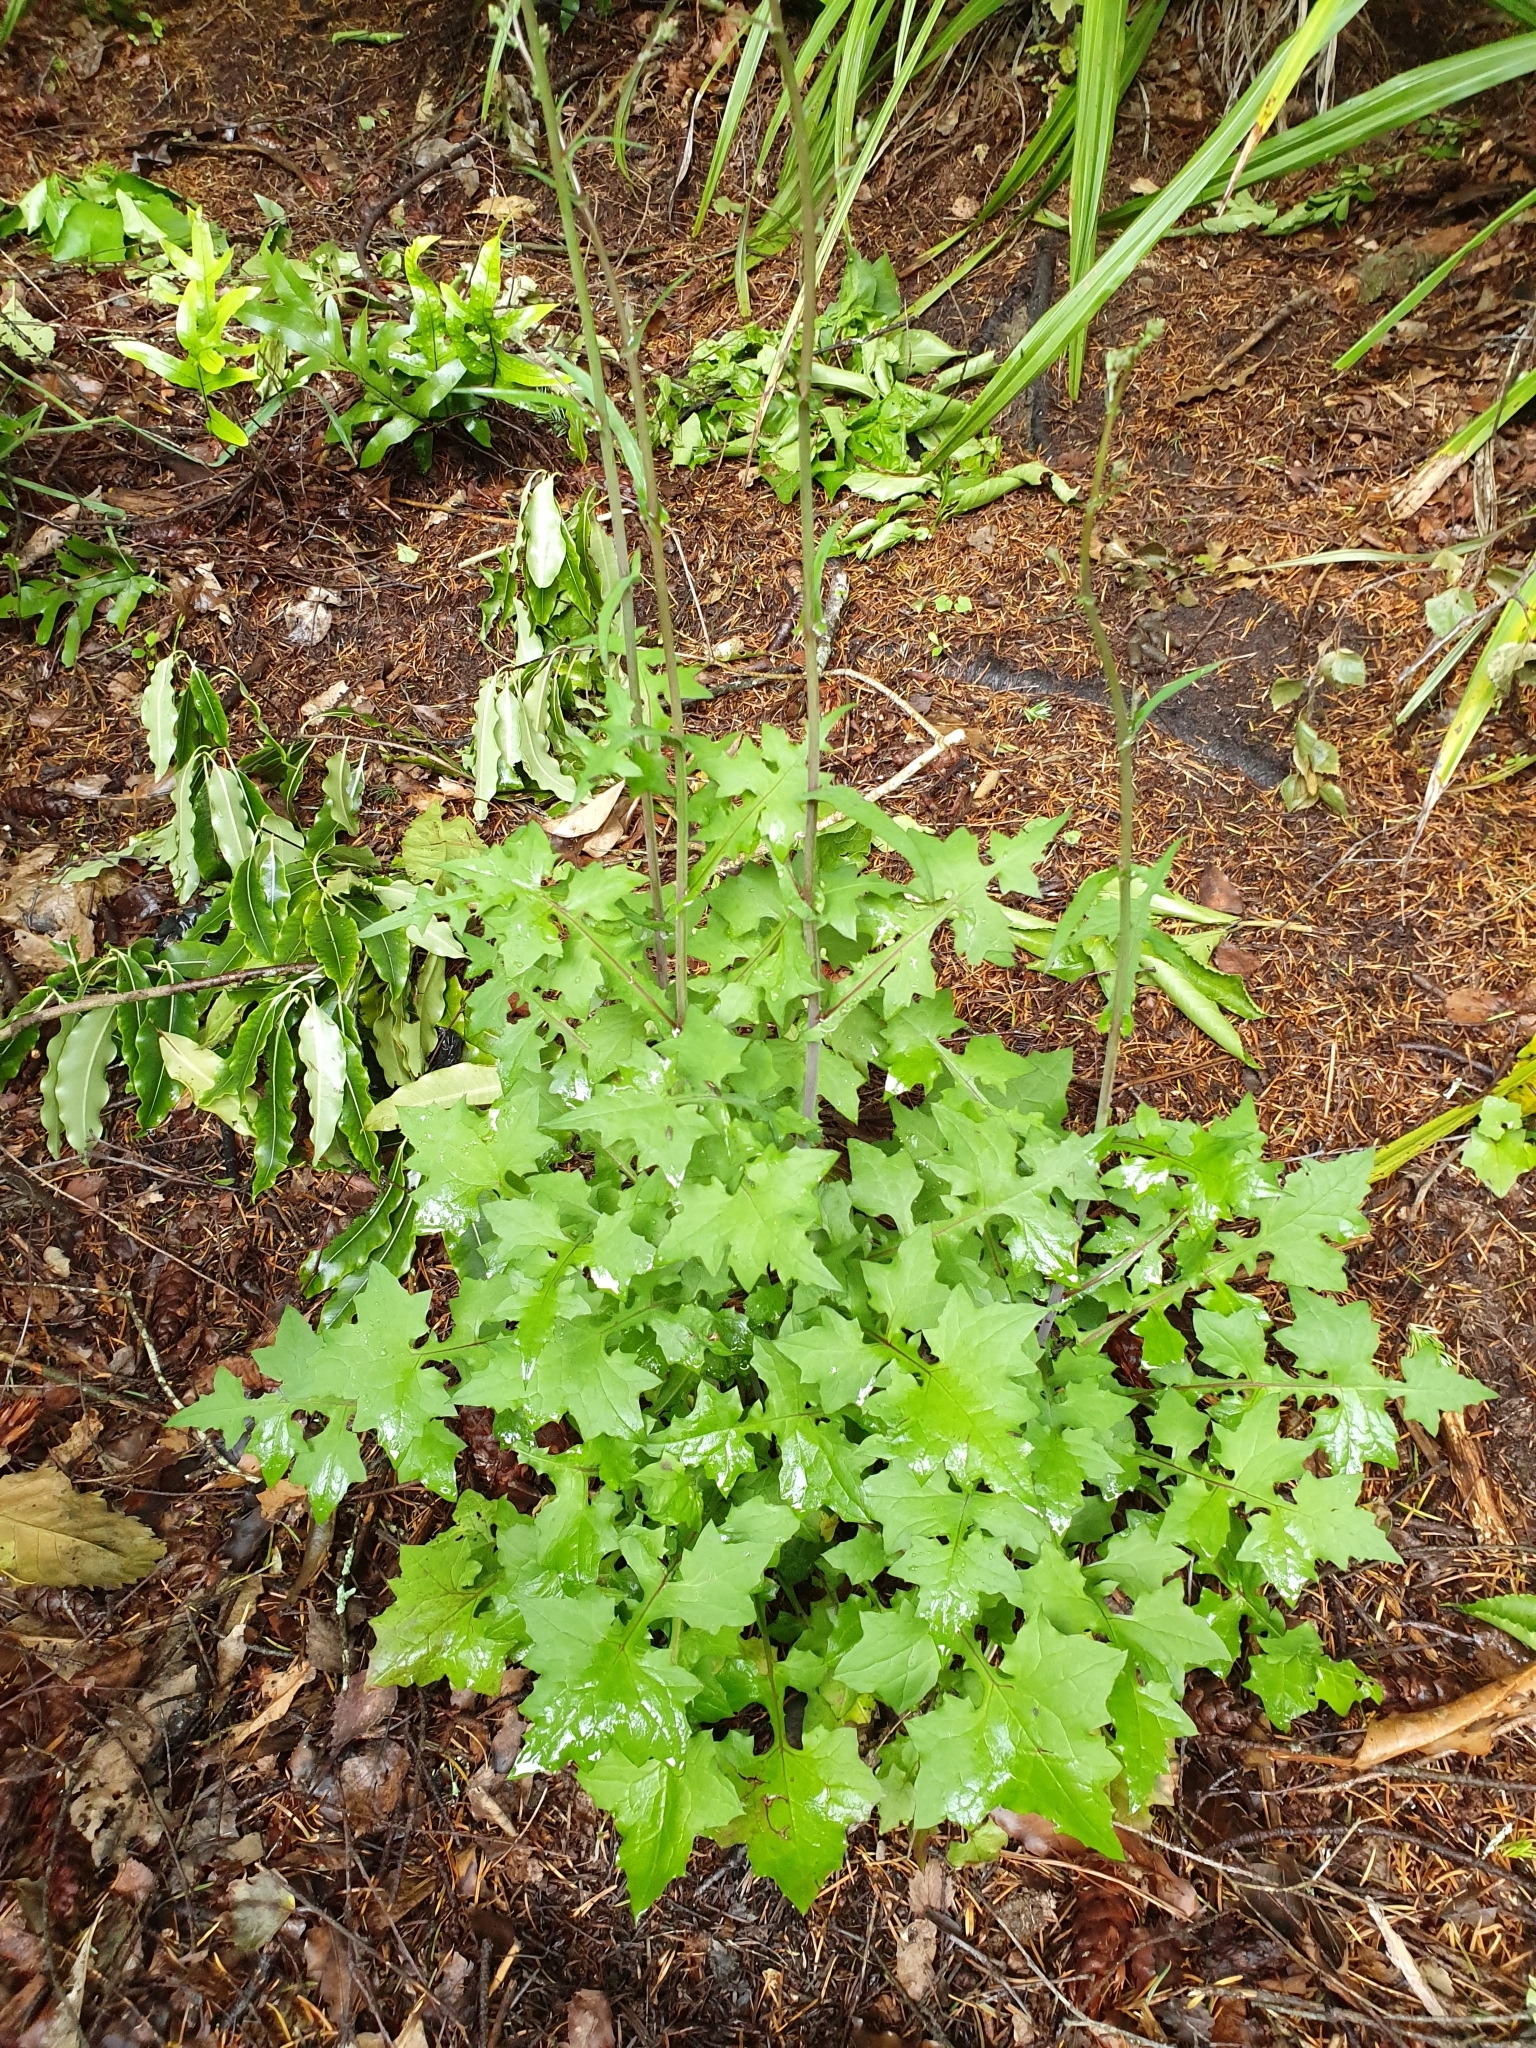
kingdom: Plantae
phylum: Tracheophyta
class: Magnoliopsida
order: Asterales
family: Asteraceae
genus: Mycelis
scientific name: Mycelis muralis
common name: Wall lettuce
